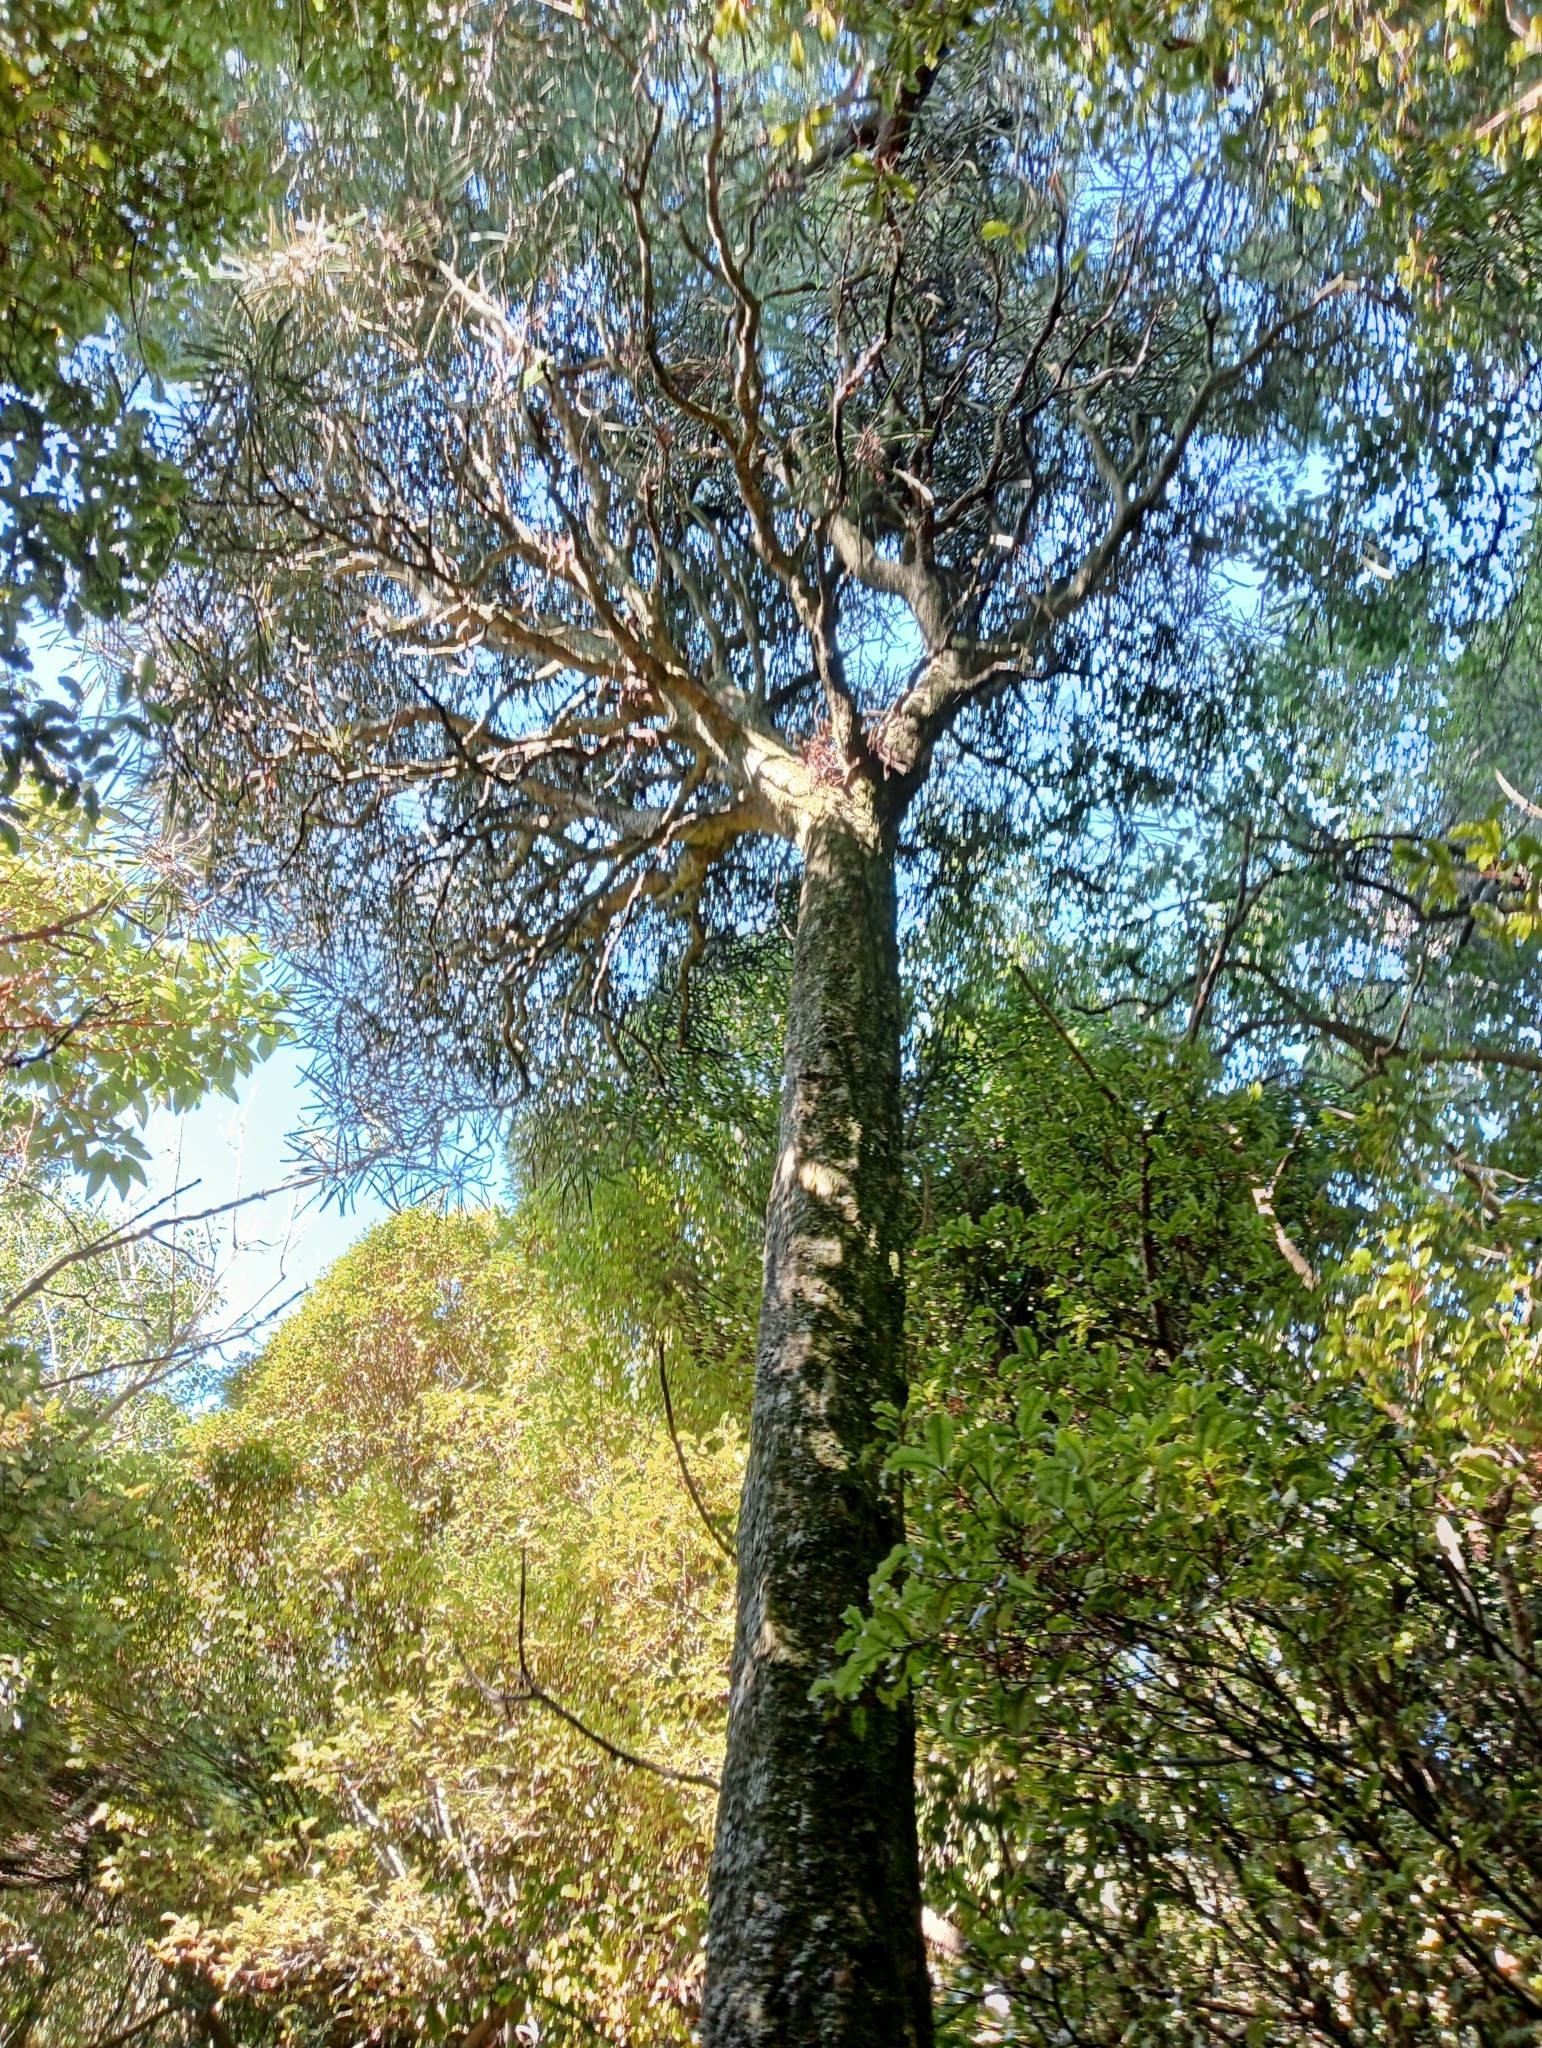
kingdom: Plantae
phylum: Tracheophyta
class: Magnoliopsida
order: Apiales
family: Araliaceae
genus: Pseudopanax
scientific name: Pseudopanax ferox
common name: Fierce lancewood
